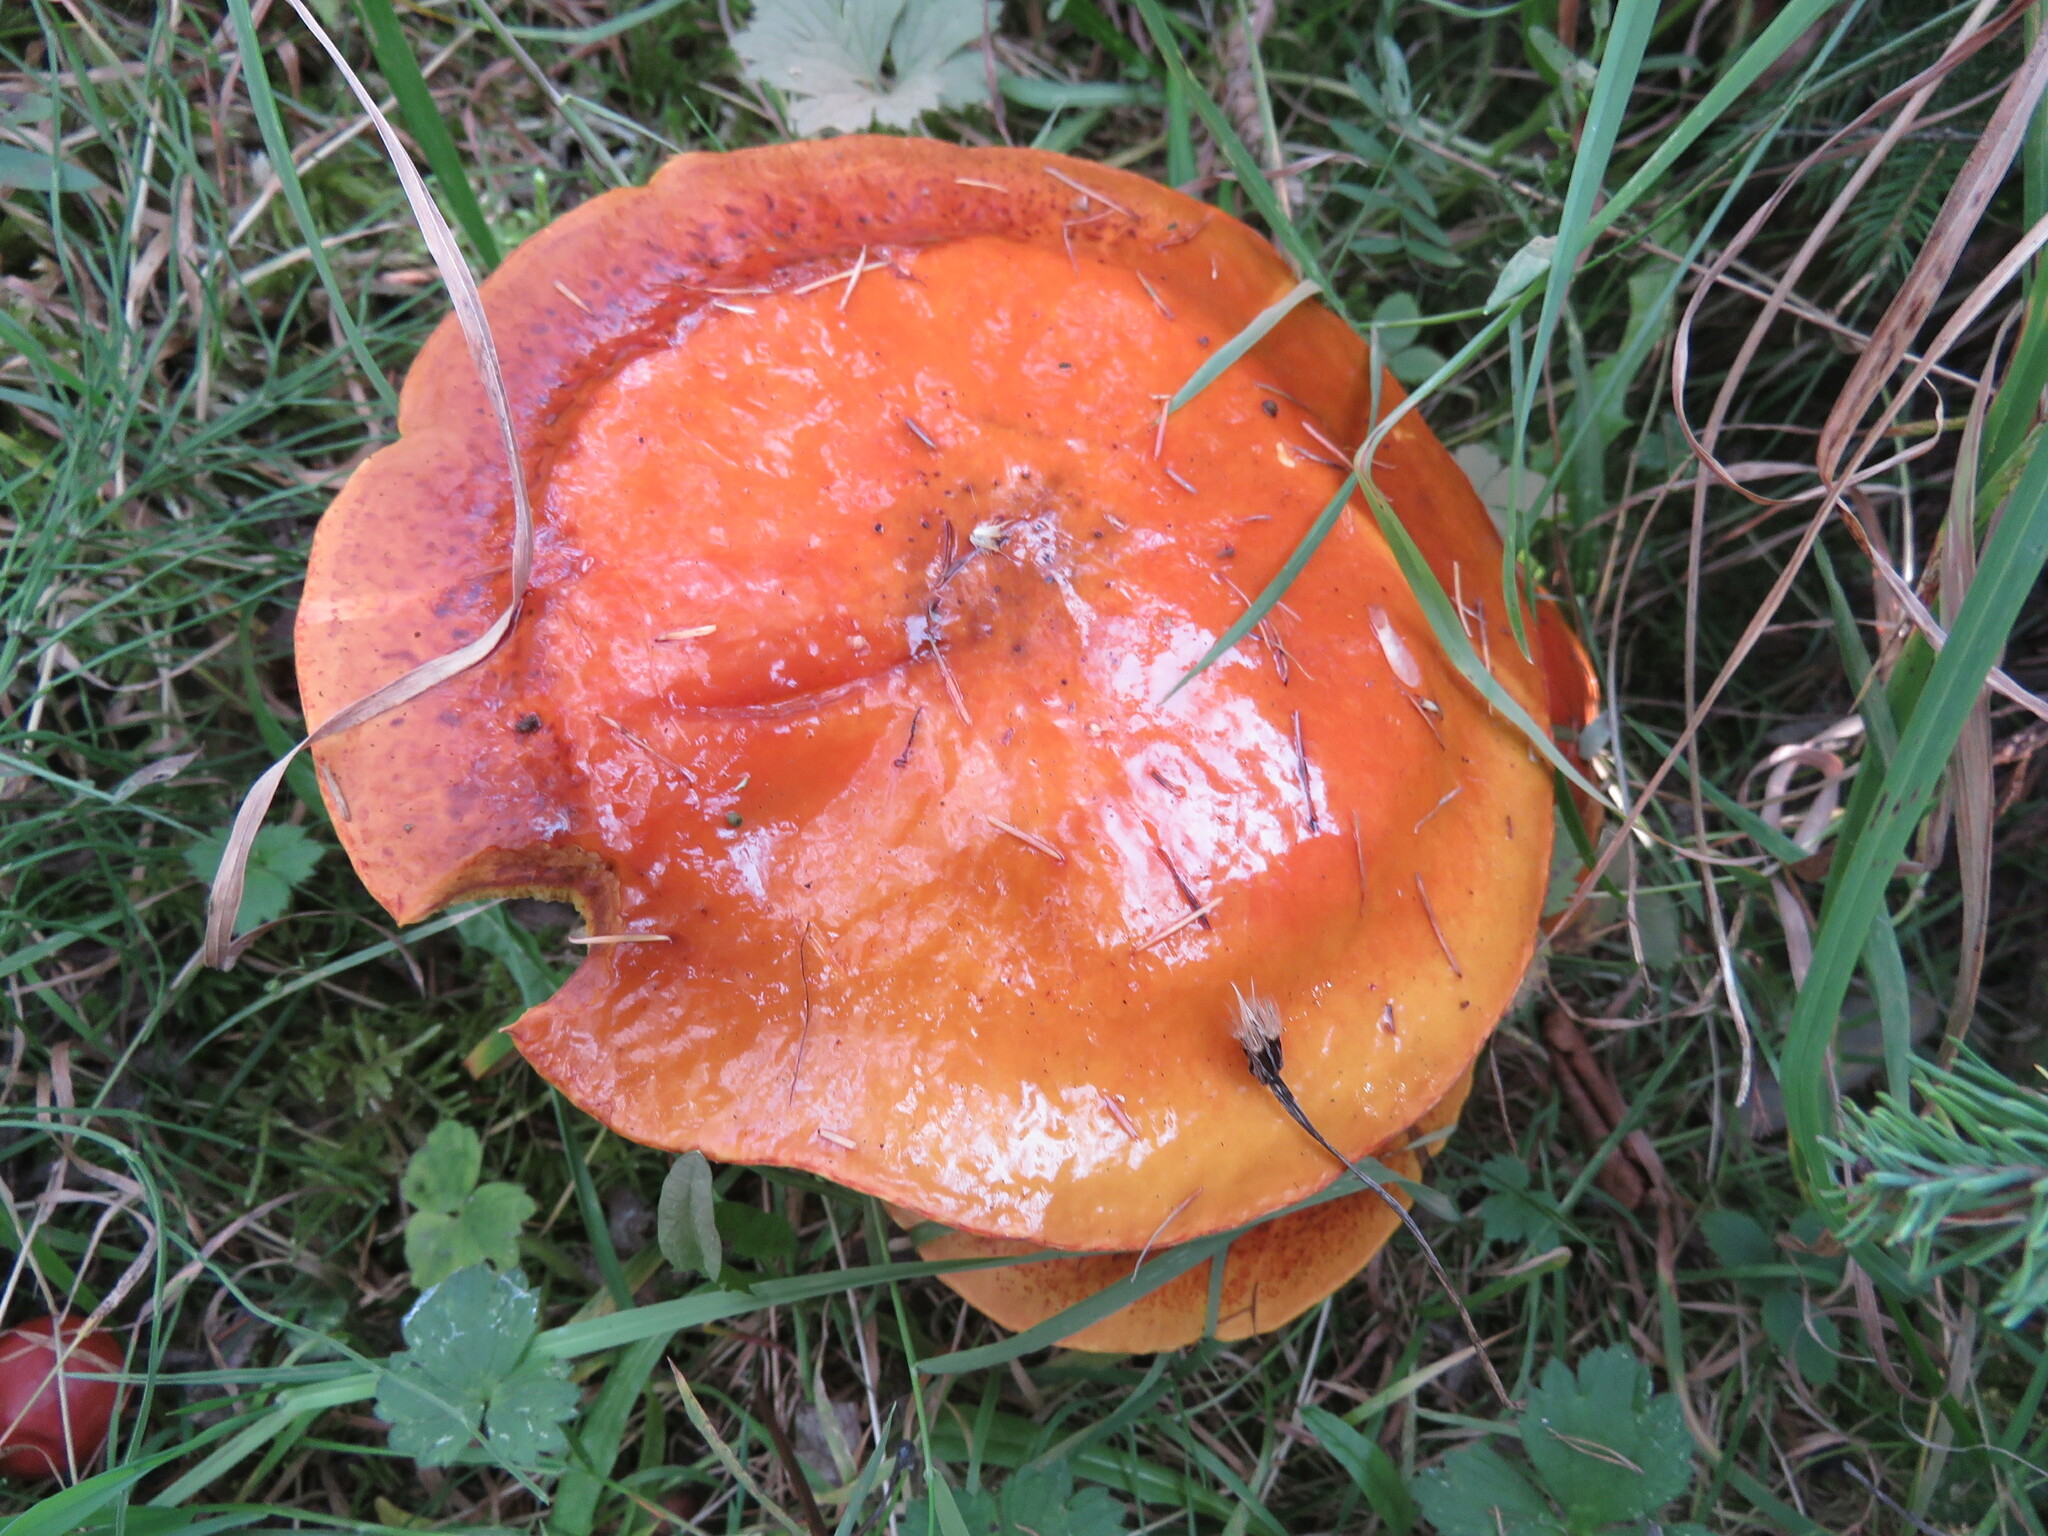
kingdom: Fungi
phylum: Basidiomycota
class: Agaricomycetes
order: Boletales
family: Suillaceae
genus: Suillus
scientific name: Suillus grevillei
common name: Larch bolete
